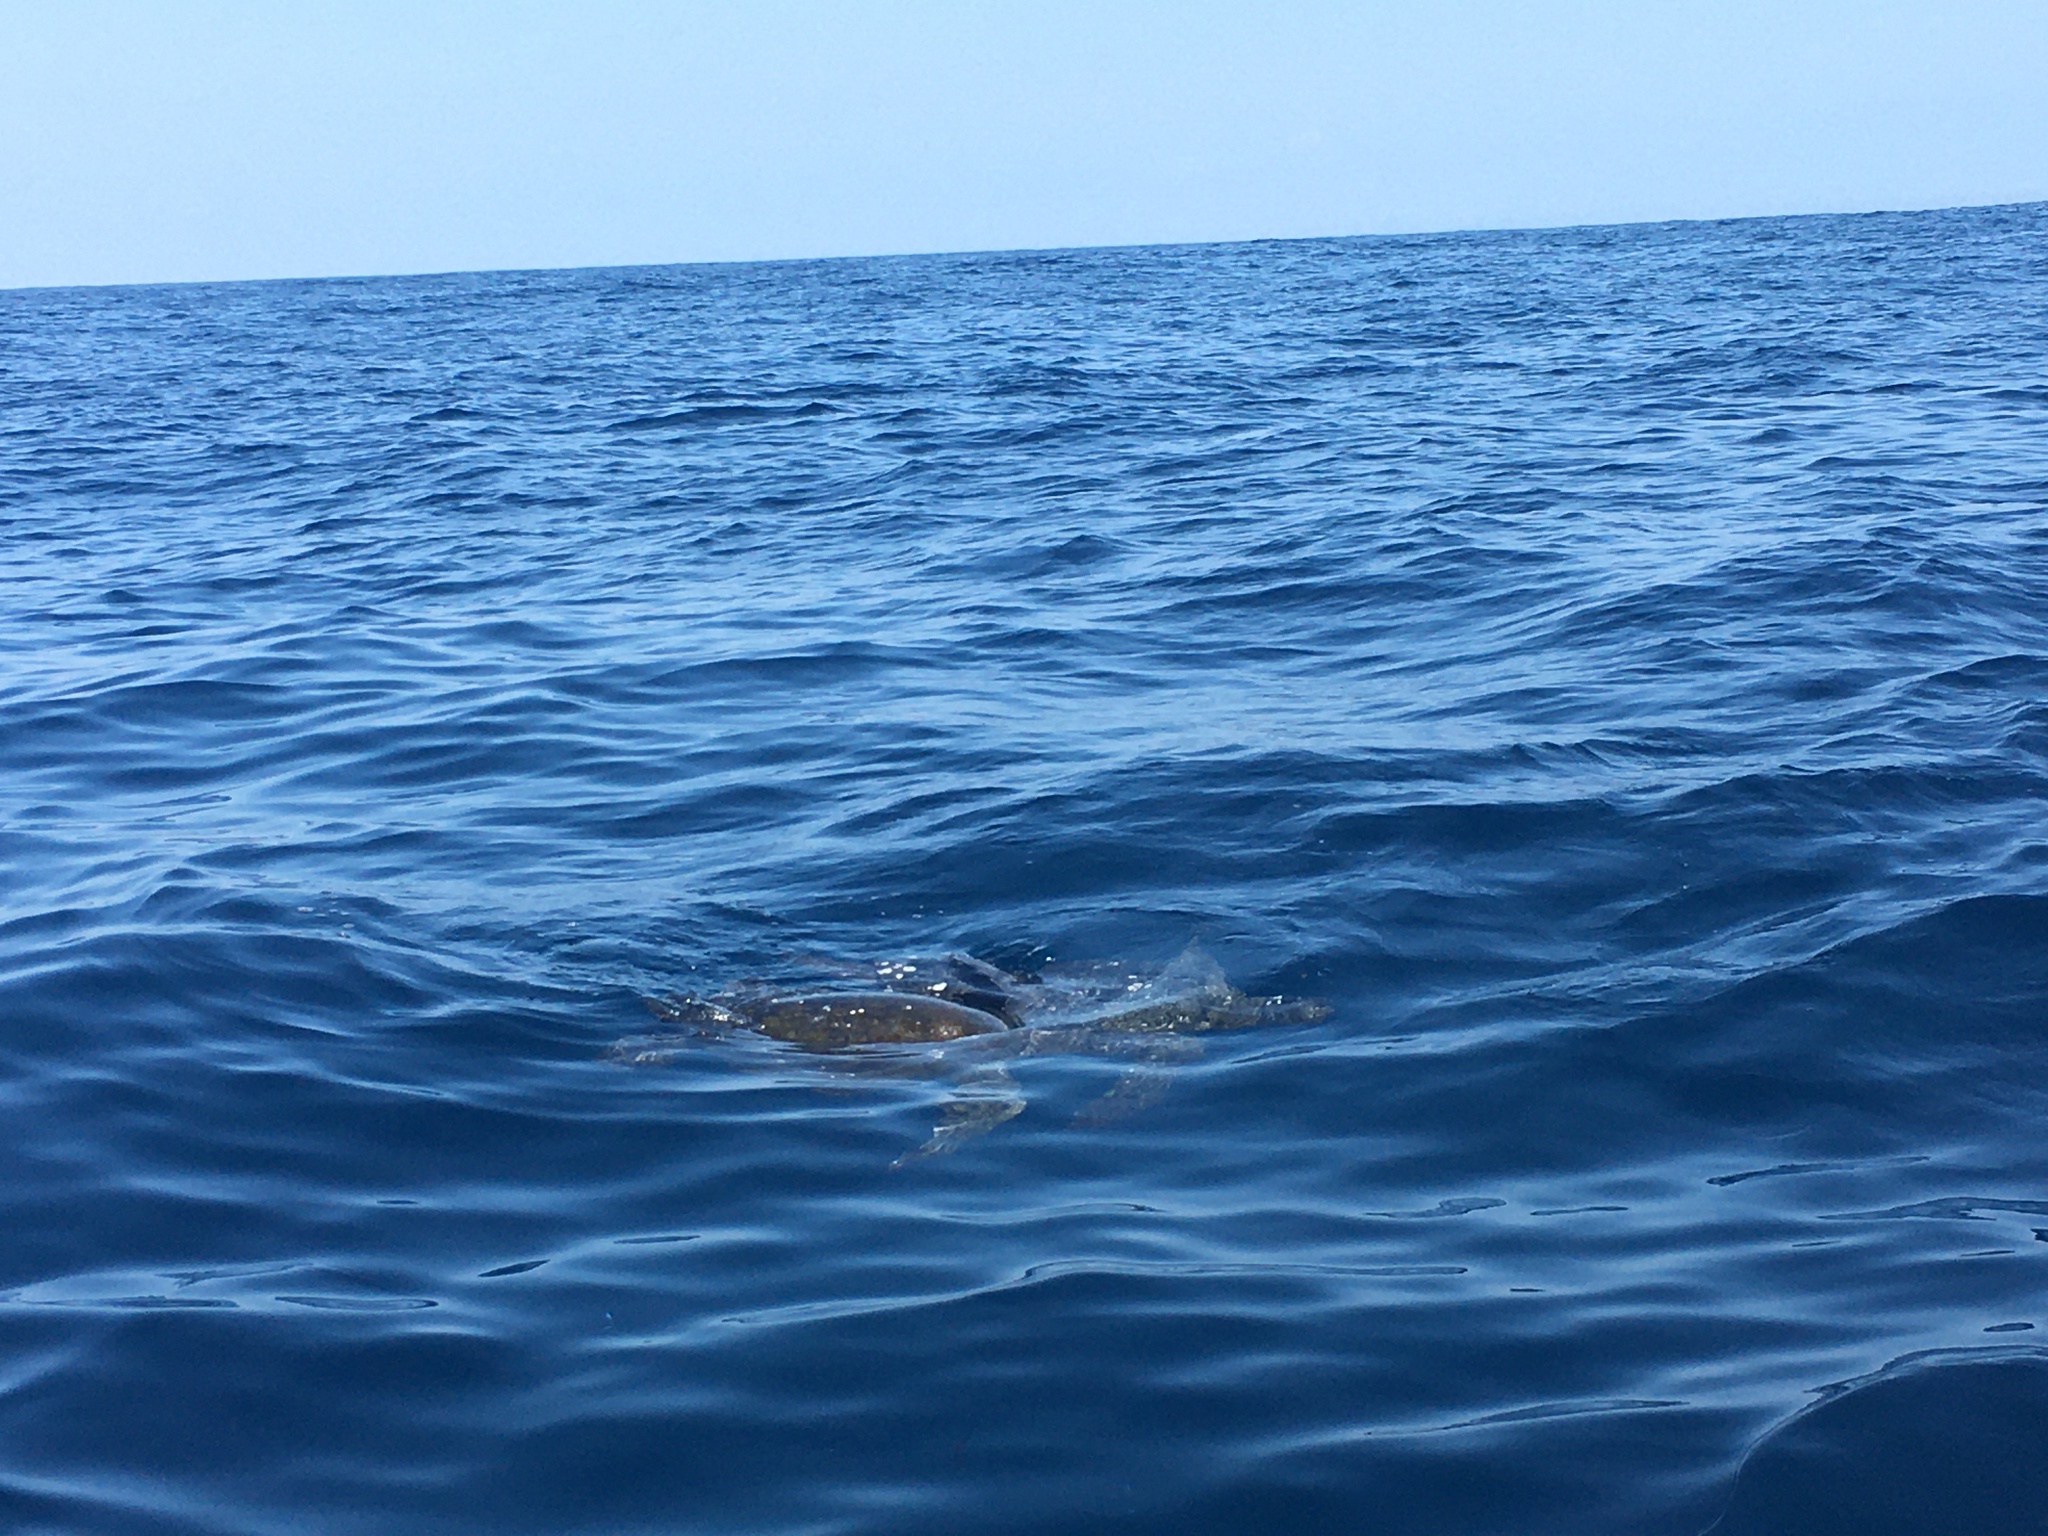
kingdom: Animalia
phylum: Chordata
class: Testudines
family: Cheloniidae
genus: Lepidochelys
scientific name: Lepidochelys olivacea
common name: Olive ridley
